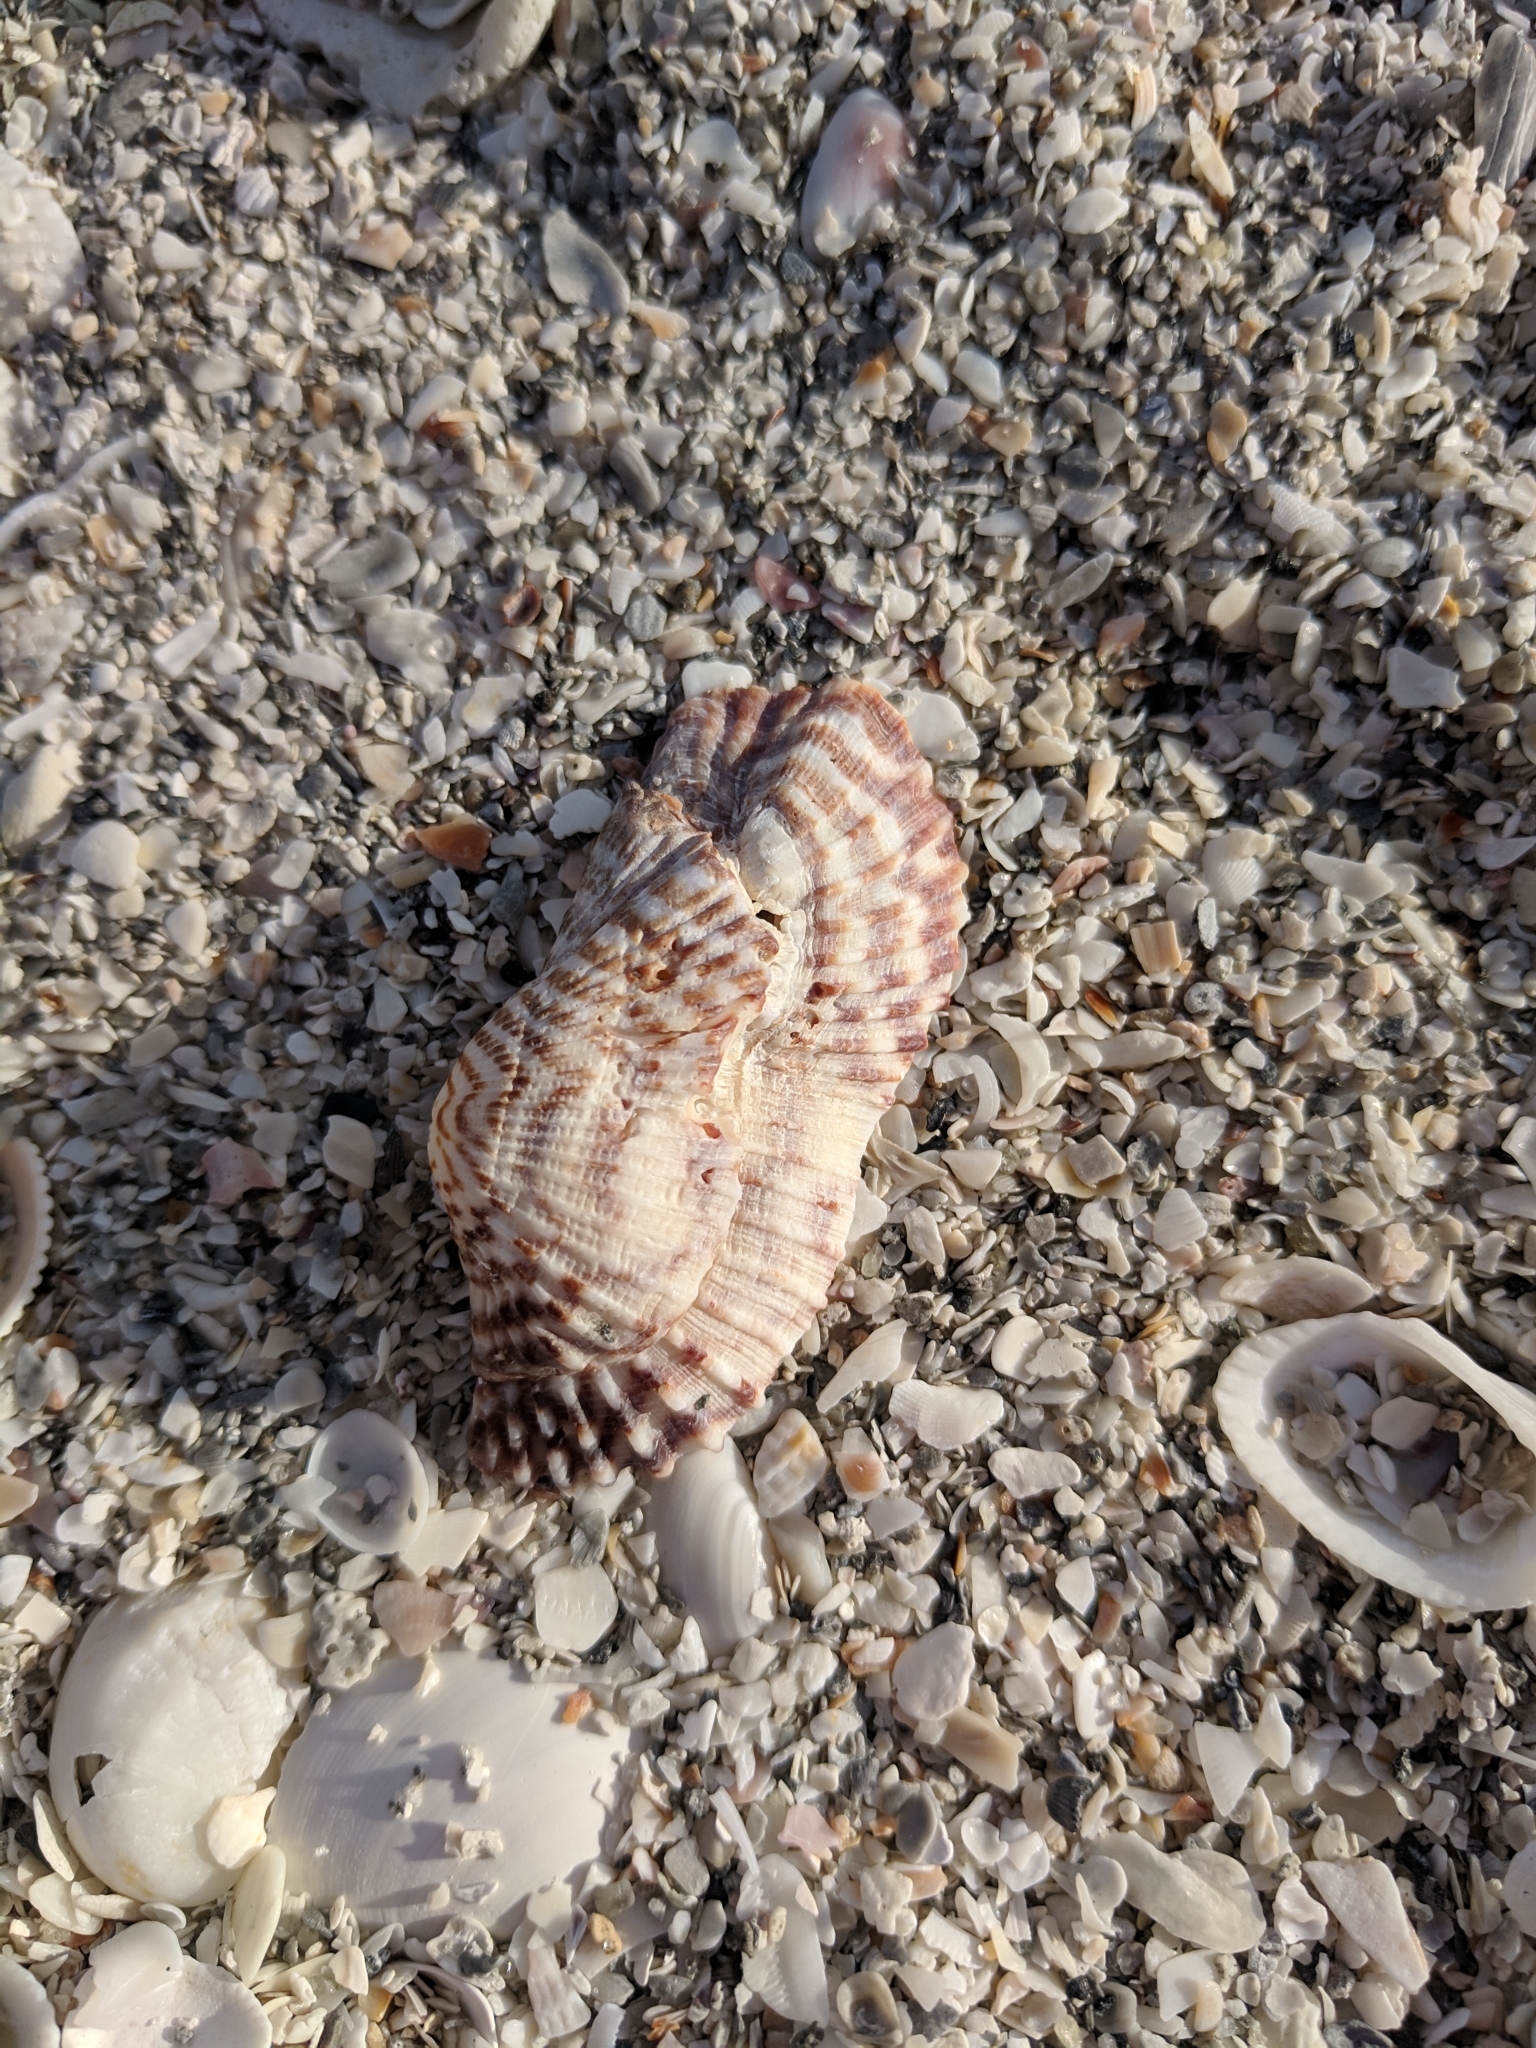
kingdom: Animalia
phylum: Mollusca
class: Bivalvia
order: Arcida
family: Arcidae
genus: Arca
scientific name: Arca zebra
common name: Atlantic turkey wing
